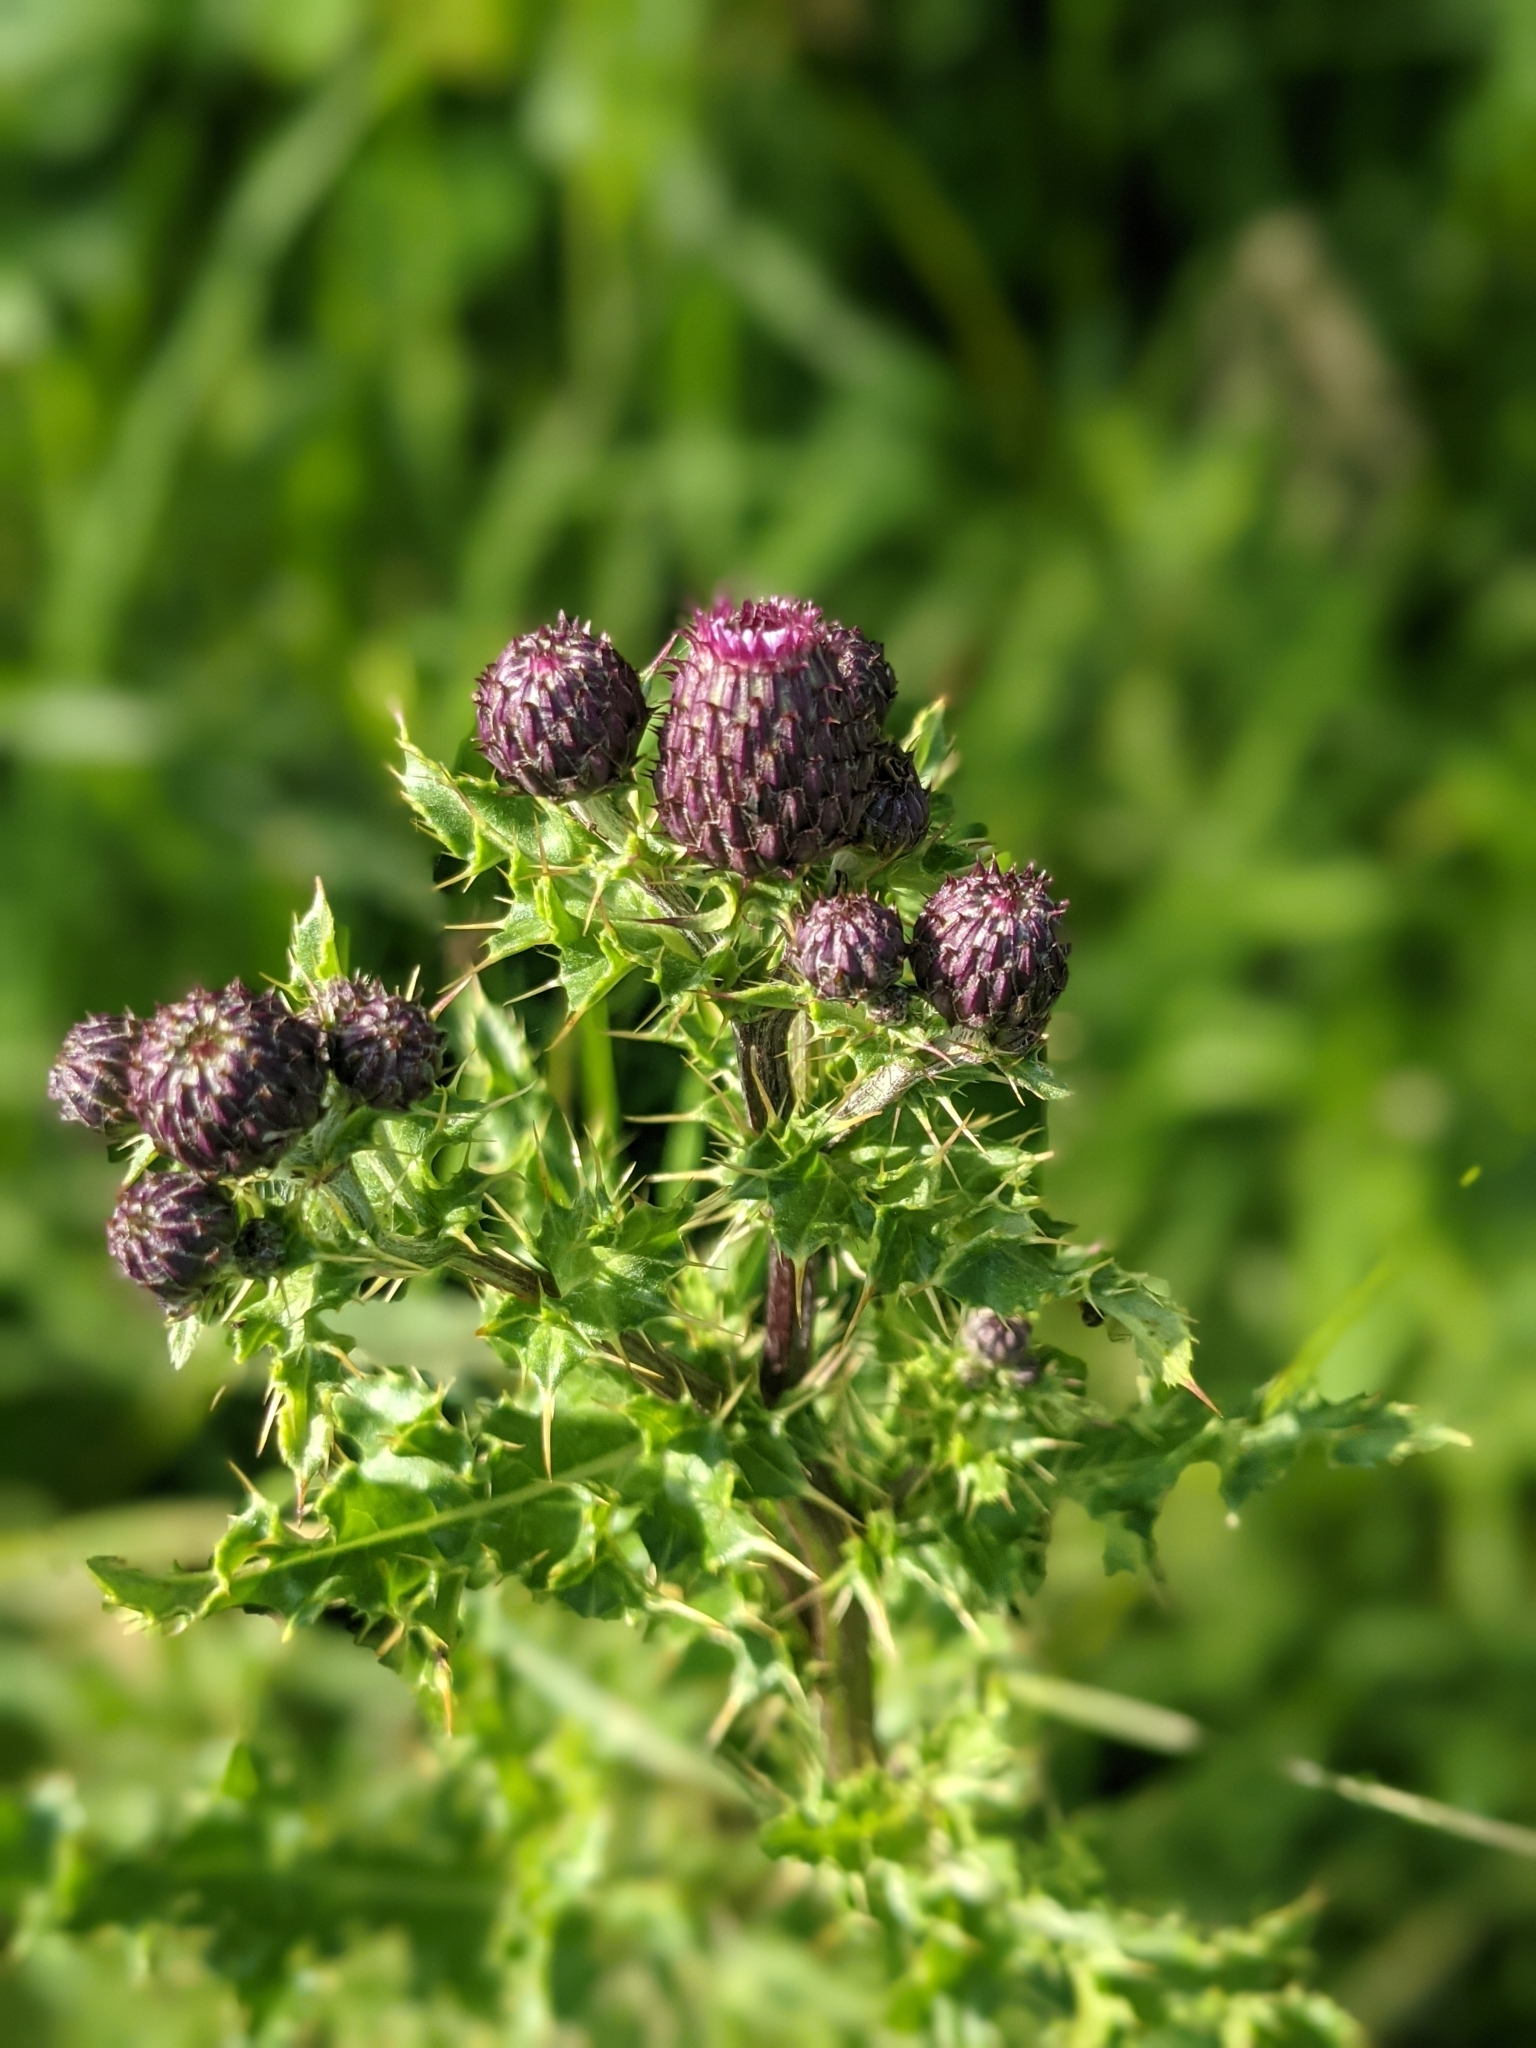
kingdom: Plantae
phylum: Tracheophyta
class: Magnoliopsida
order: Asterales
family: Asteraceae
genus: Cirsium
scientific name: Cirsium arvense
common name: Creeping thistle
